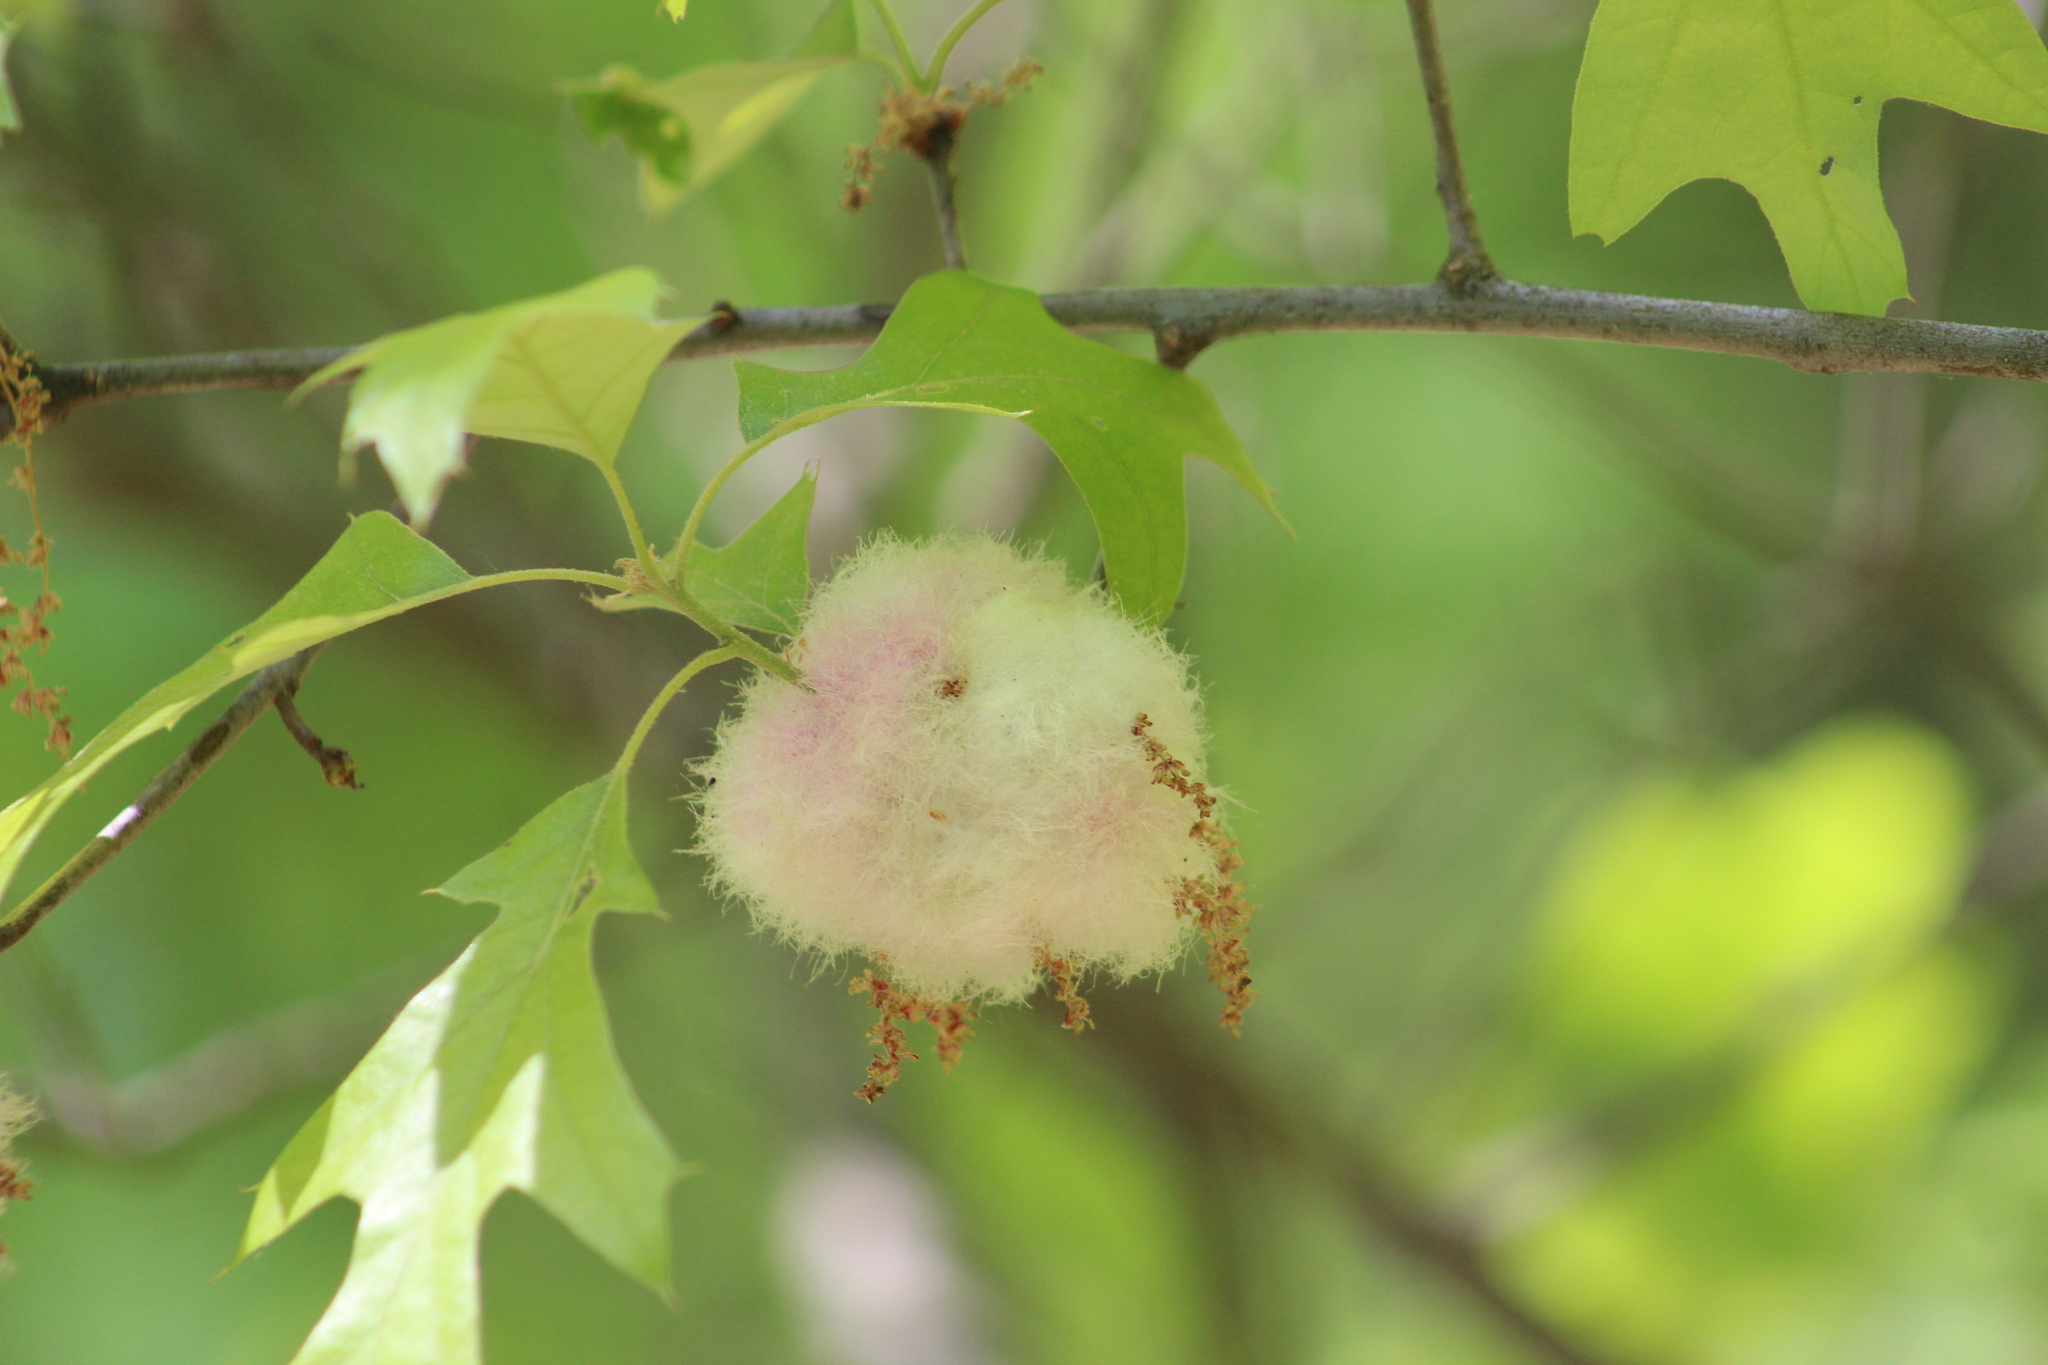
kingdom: Animalia
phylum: Arthropoda
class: Insecta
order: Hymenoptera
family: Cynipidae
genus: Callirhytis
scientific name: Callirhytis
